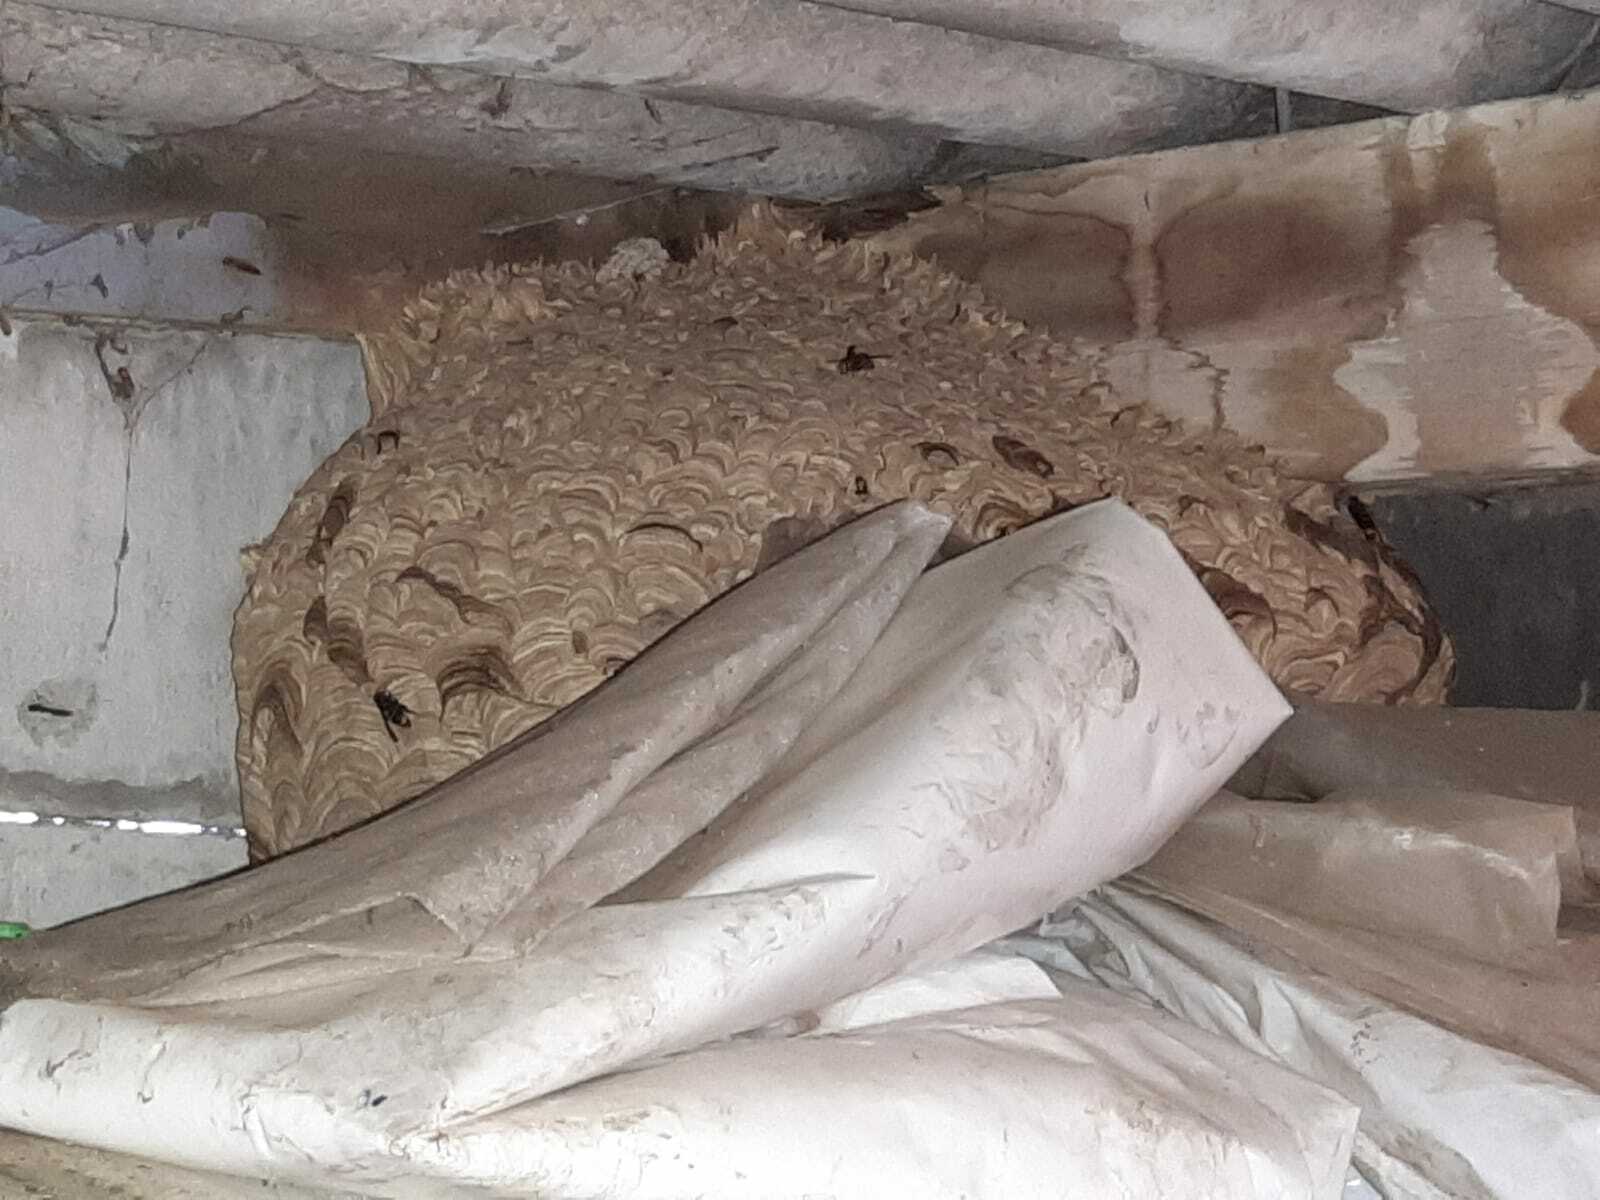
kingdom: Animalia
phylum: Arthropoda
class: Insecta
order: Hymenoptera
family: Vespidae
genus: Vespa
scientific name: Vespa velutina
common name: Asian hornet
